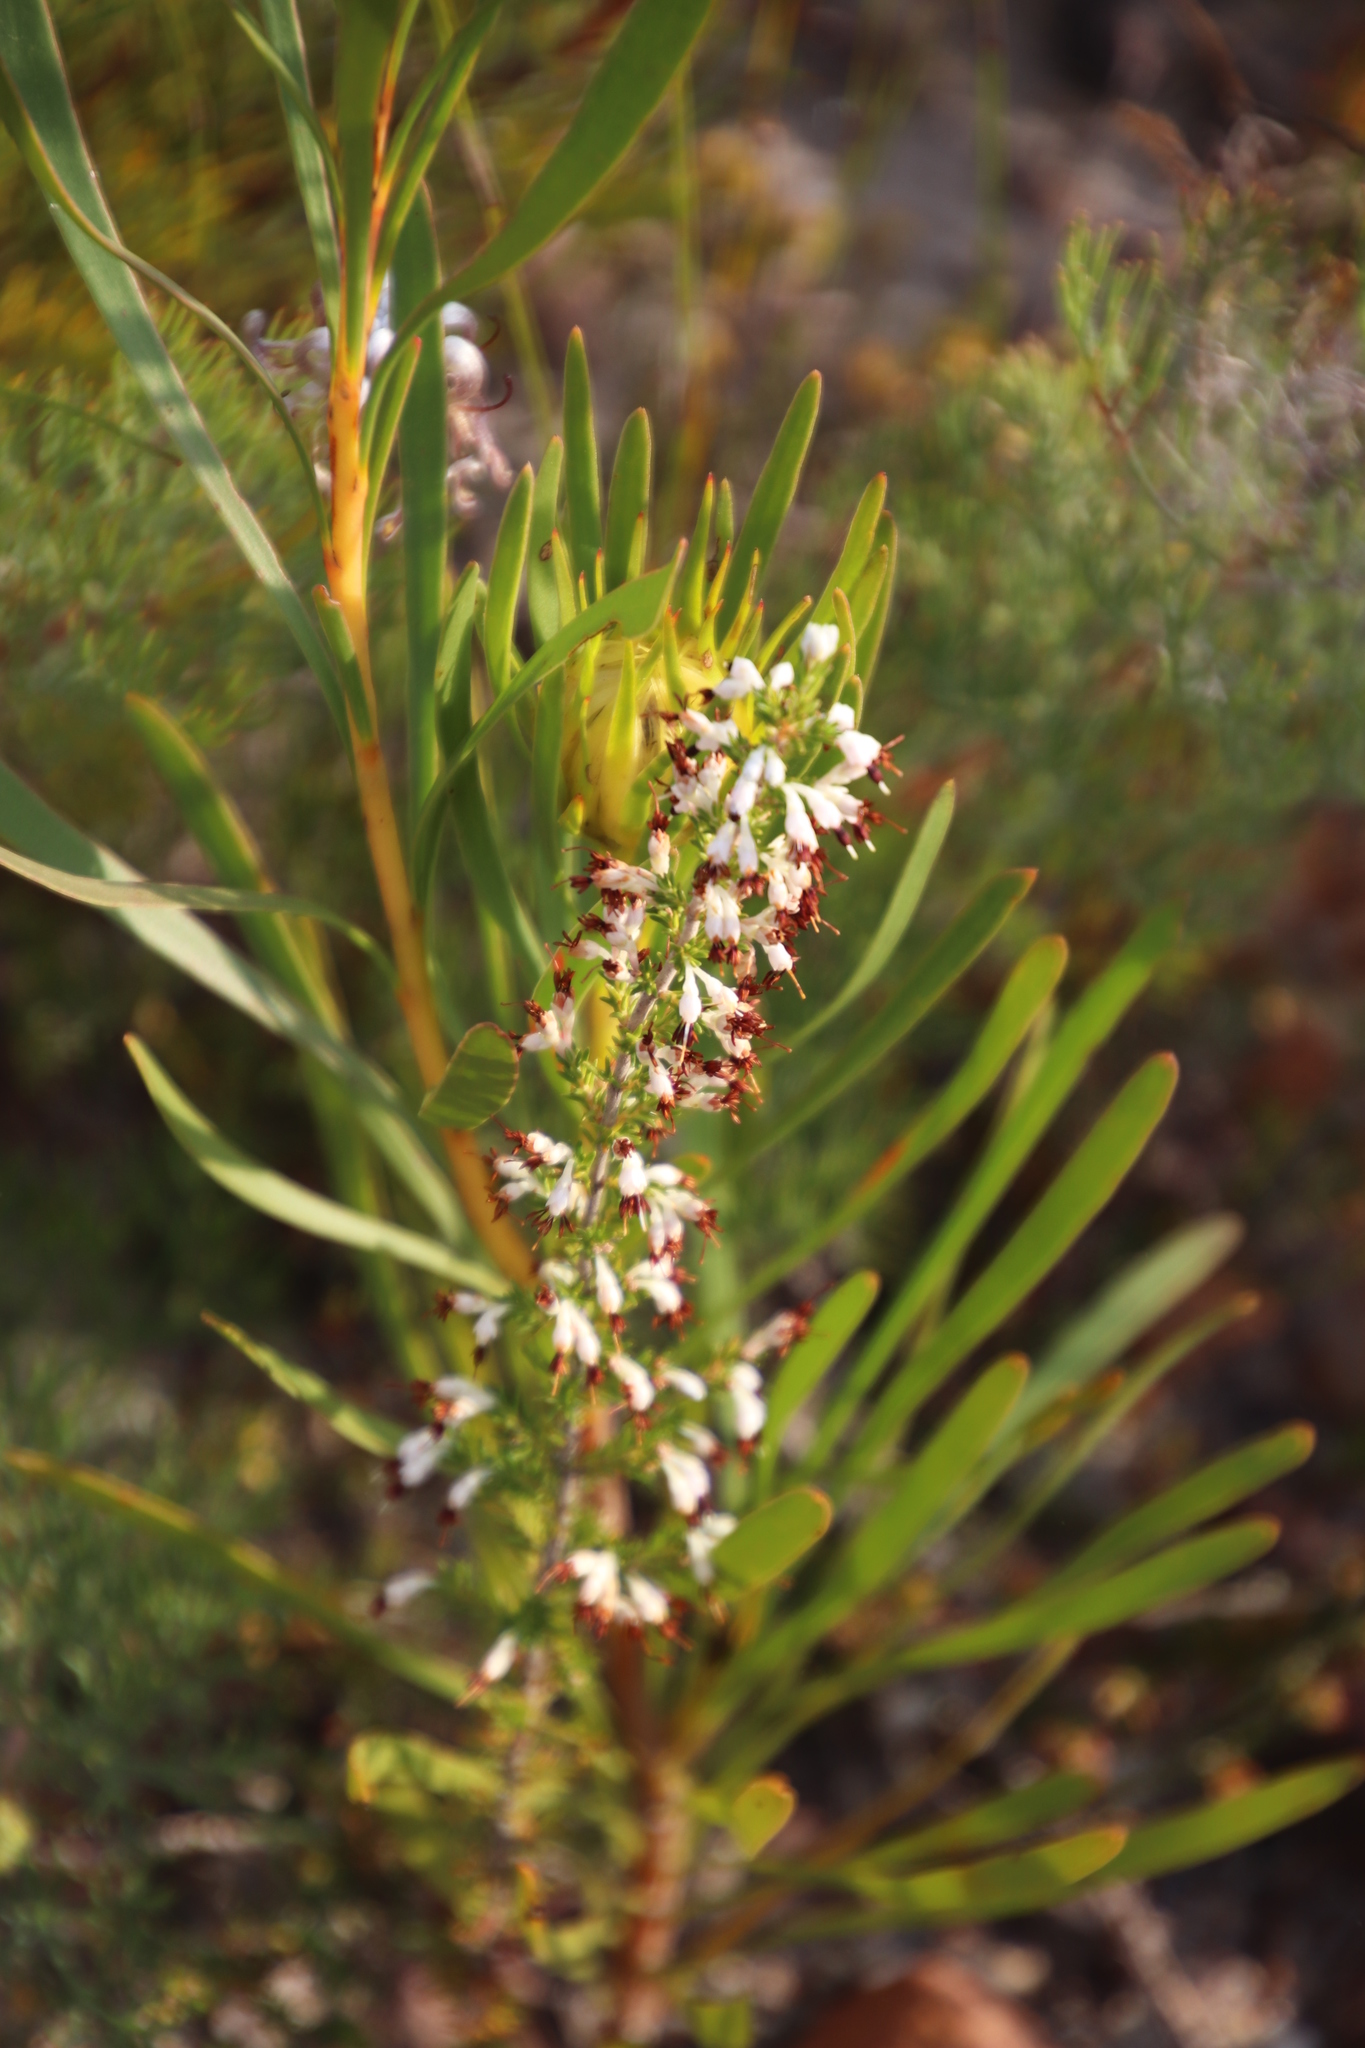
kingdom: Plantae
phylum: Tracheophyta
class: Magnoliopsida
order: Ericales
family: Ericaceae
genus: Erica
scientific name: Erica imbricata
